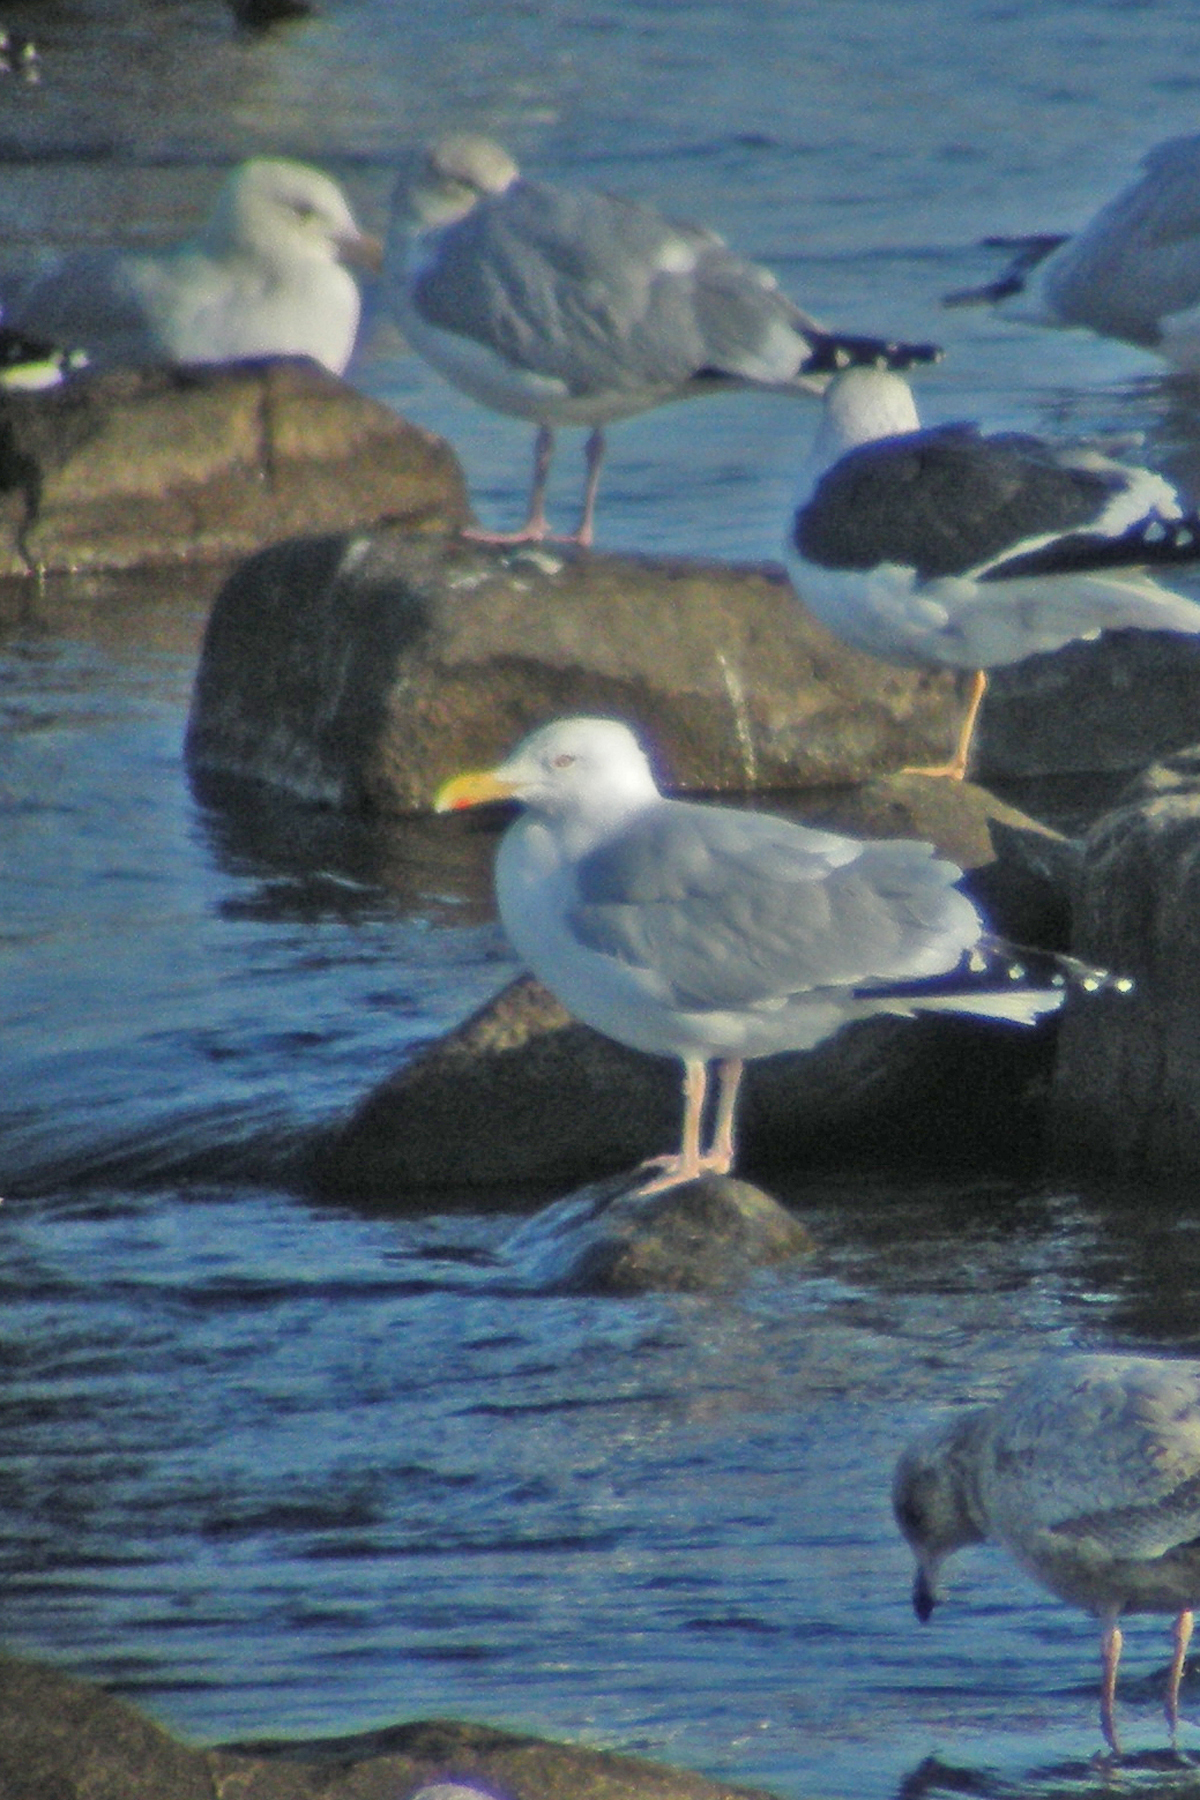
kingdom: Animalia
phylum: Chordata
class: Aves
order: Charadriiformes
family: Laridae
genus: Larus
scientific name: Larus argentatus
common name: Herring gull
